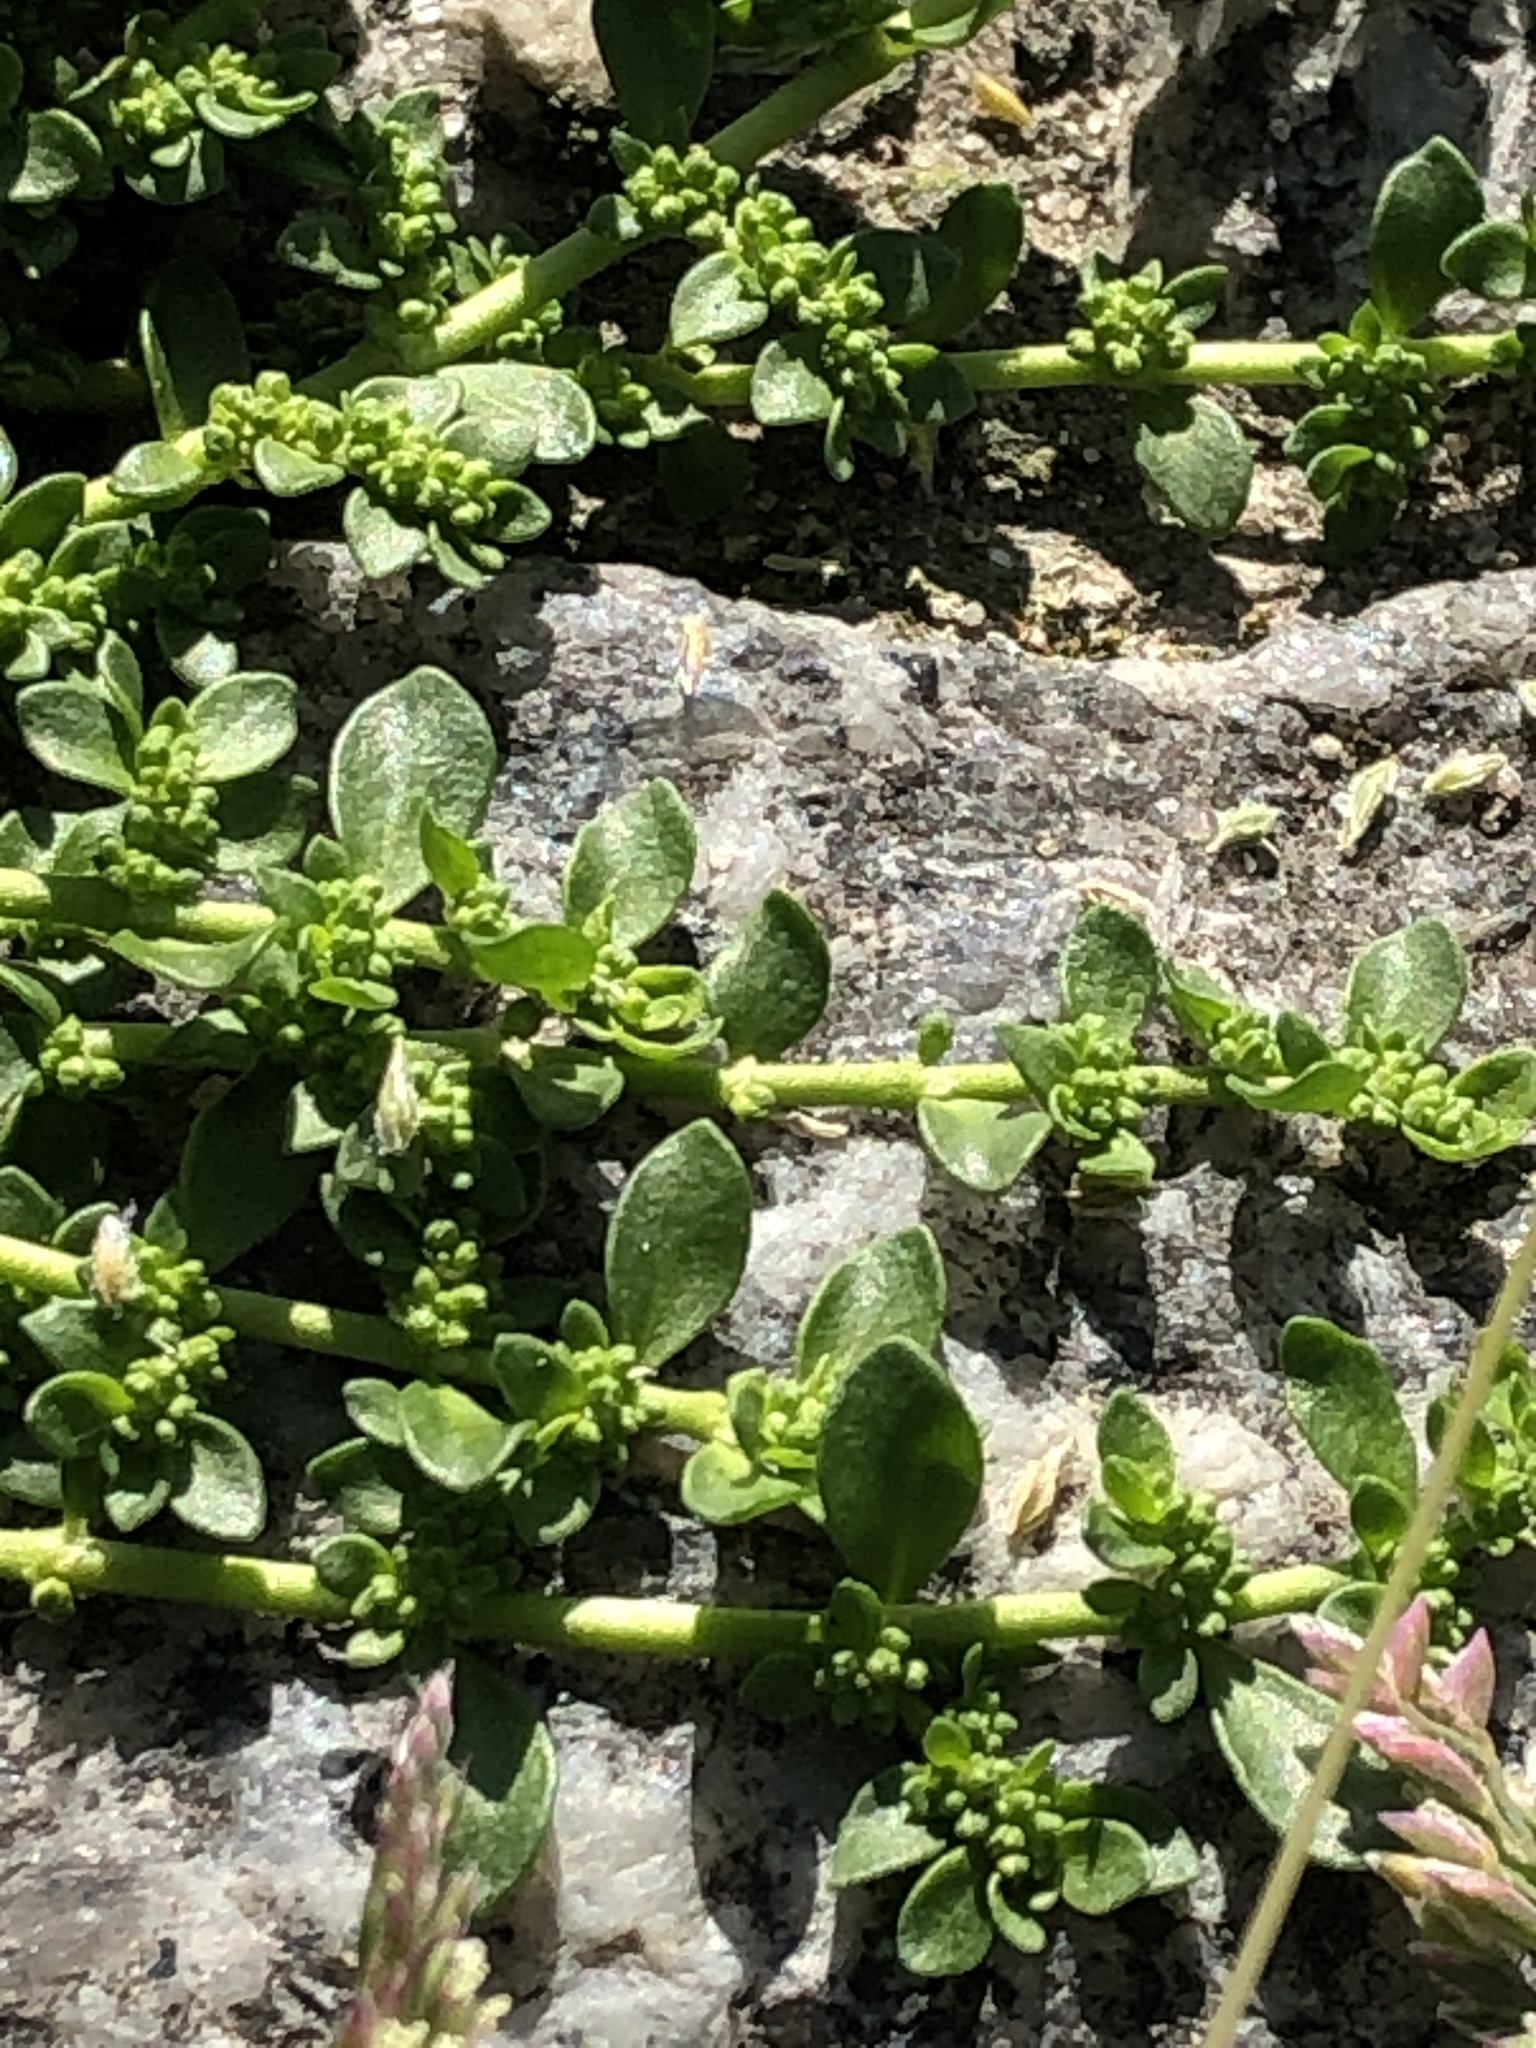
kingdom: Plantae
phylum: Tracheophyta
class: Magnoliopsida
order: Caryophyllales
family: Caryophyllaceae
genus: Herniaria
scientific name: Herniaria glabra
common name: Smooth rupturewort
